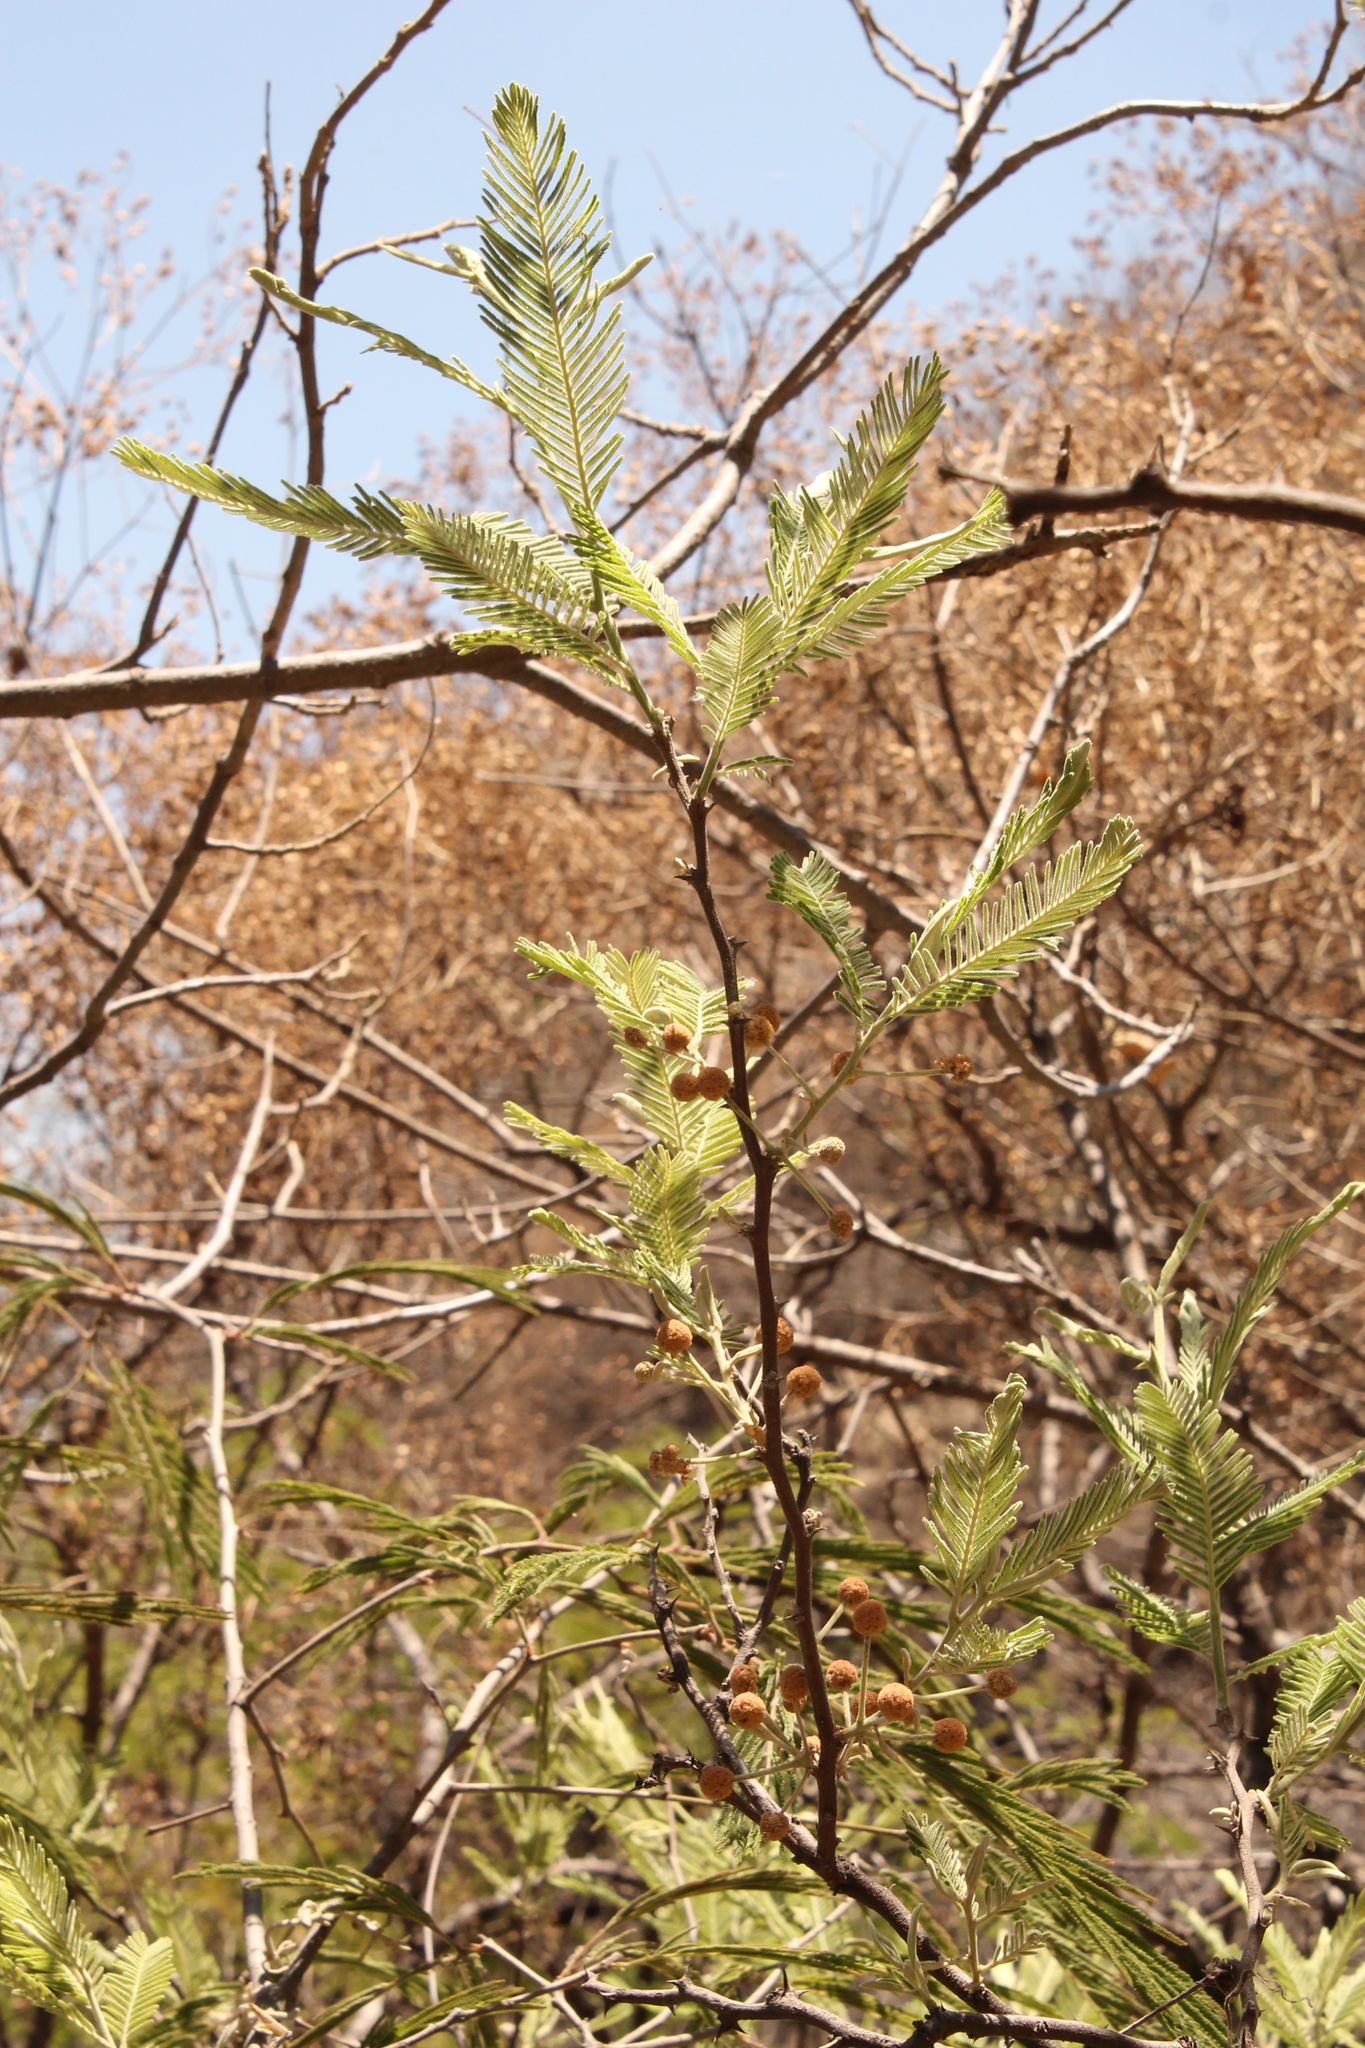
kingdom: Plantae
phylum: Tracheophyta
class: Magnoliopsida
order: Fabales
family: Fabaceae
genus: Vachellia
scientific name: Vachellia pennatula
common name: Fern-leaf acacia
